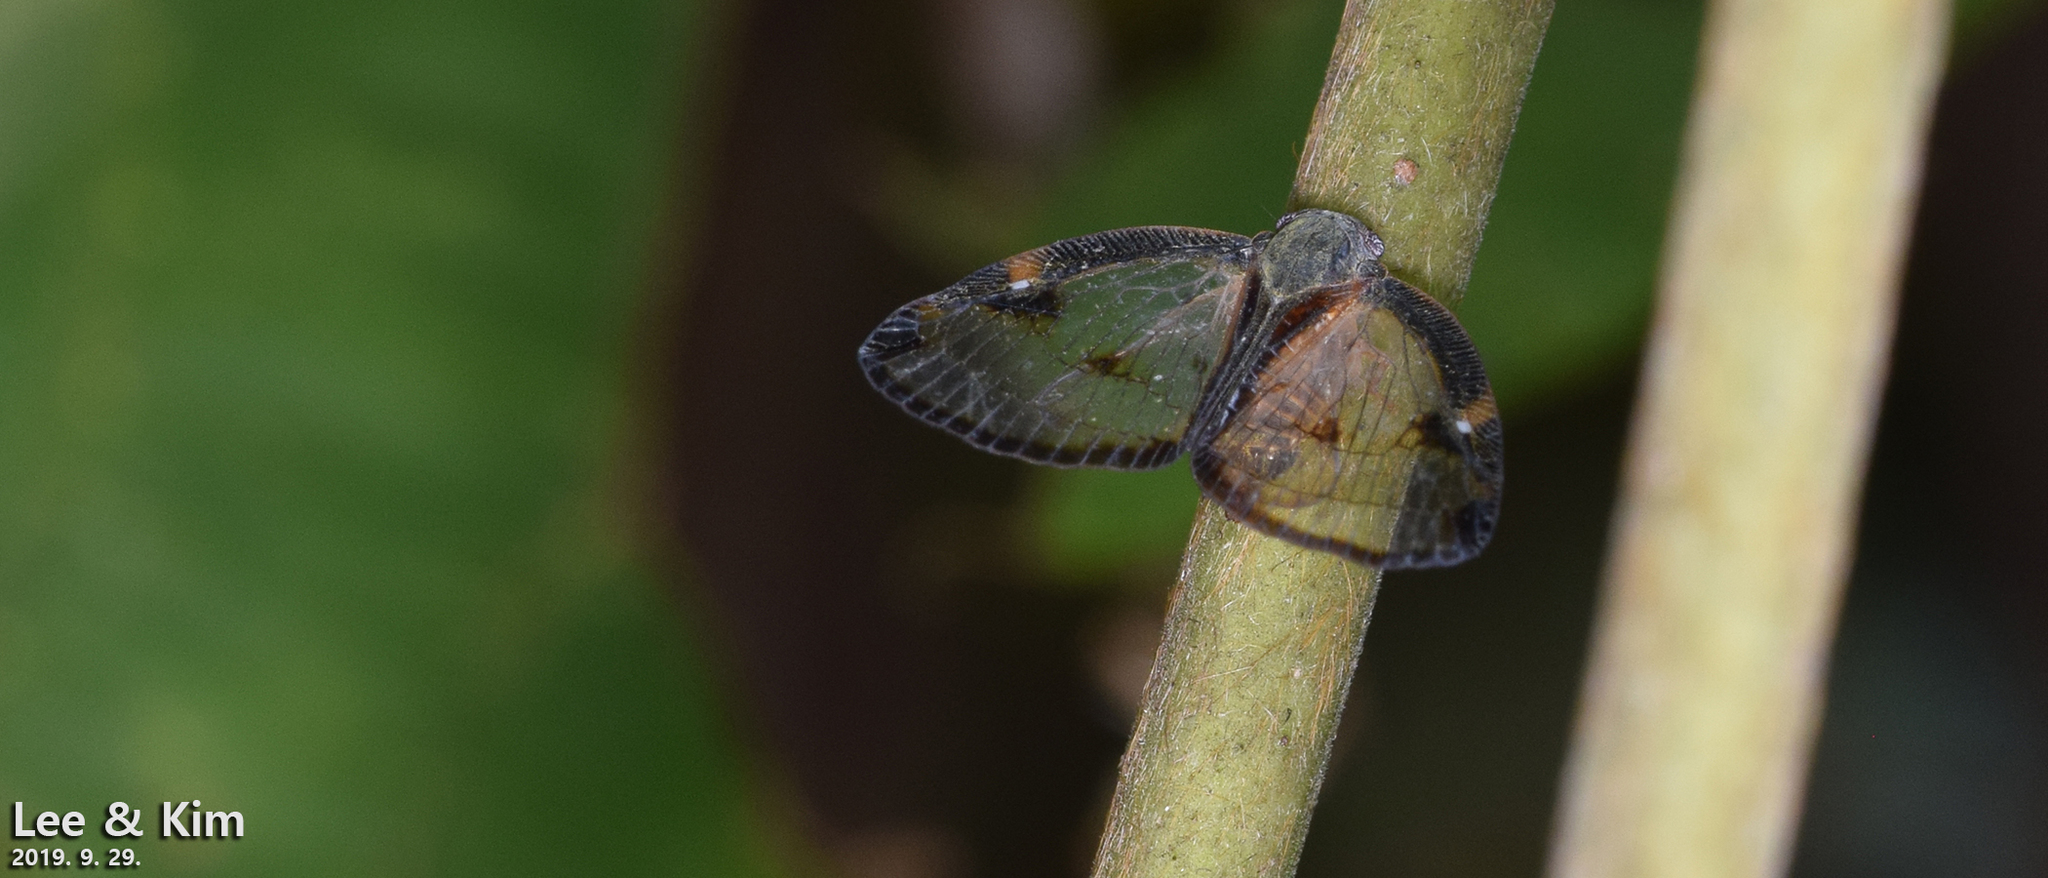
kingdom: Animalia
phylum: Arthropoda
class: Insecta
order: Hemiptera
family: Ricaniidae
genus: Euricania
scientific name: Euricania facialis
